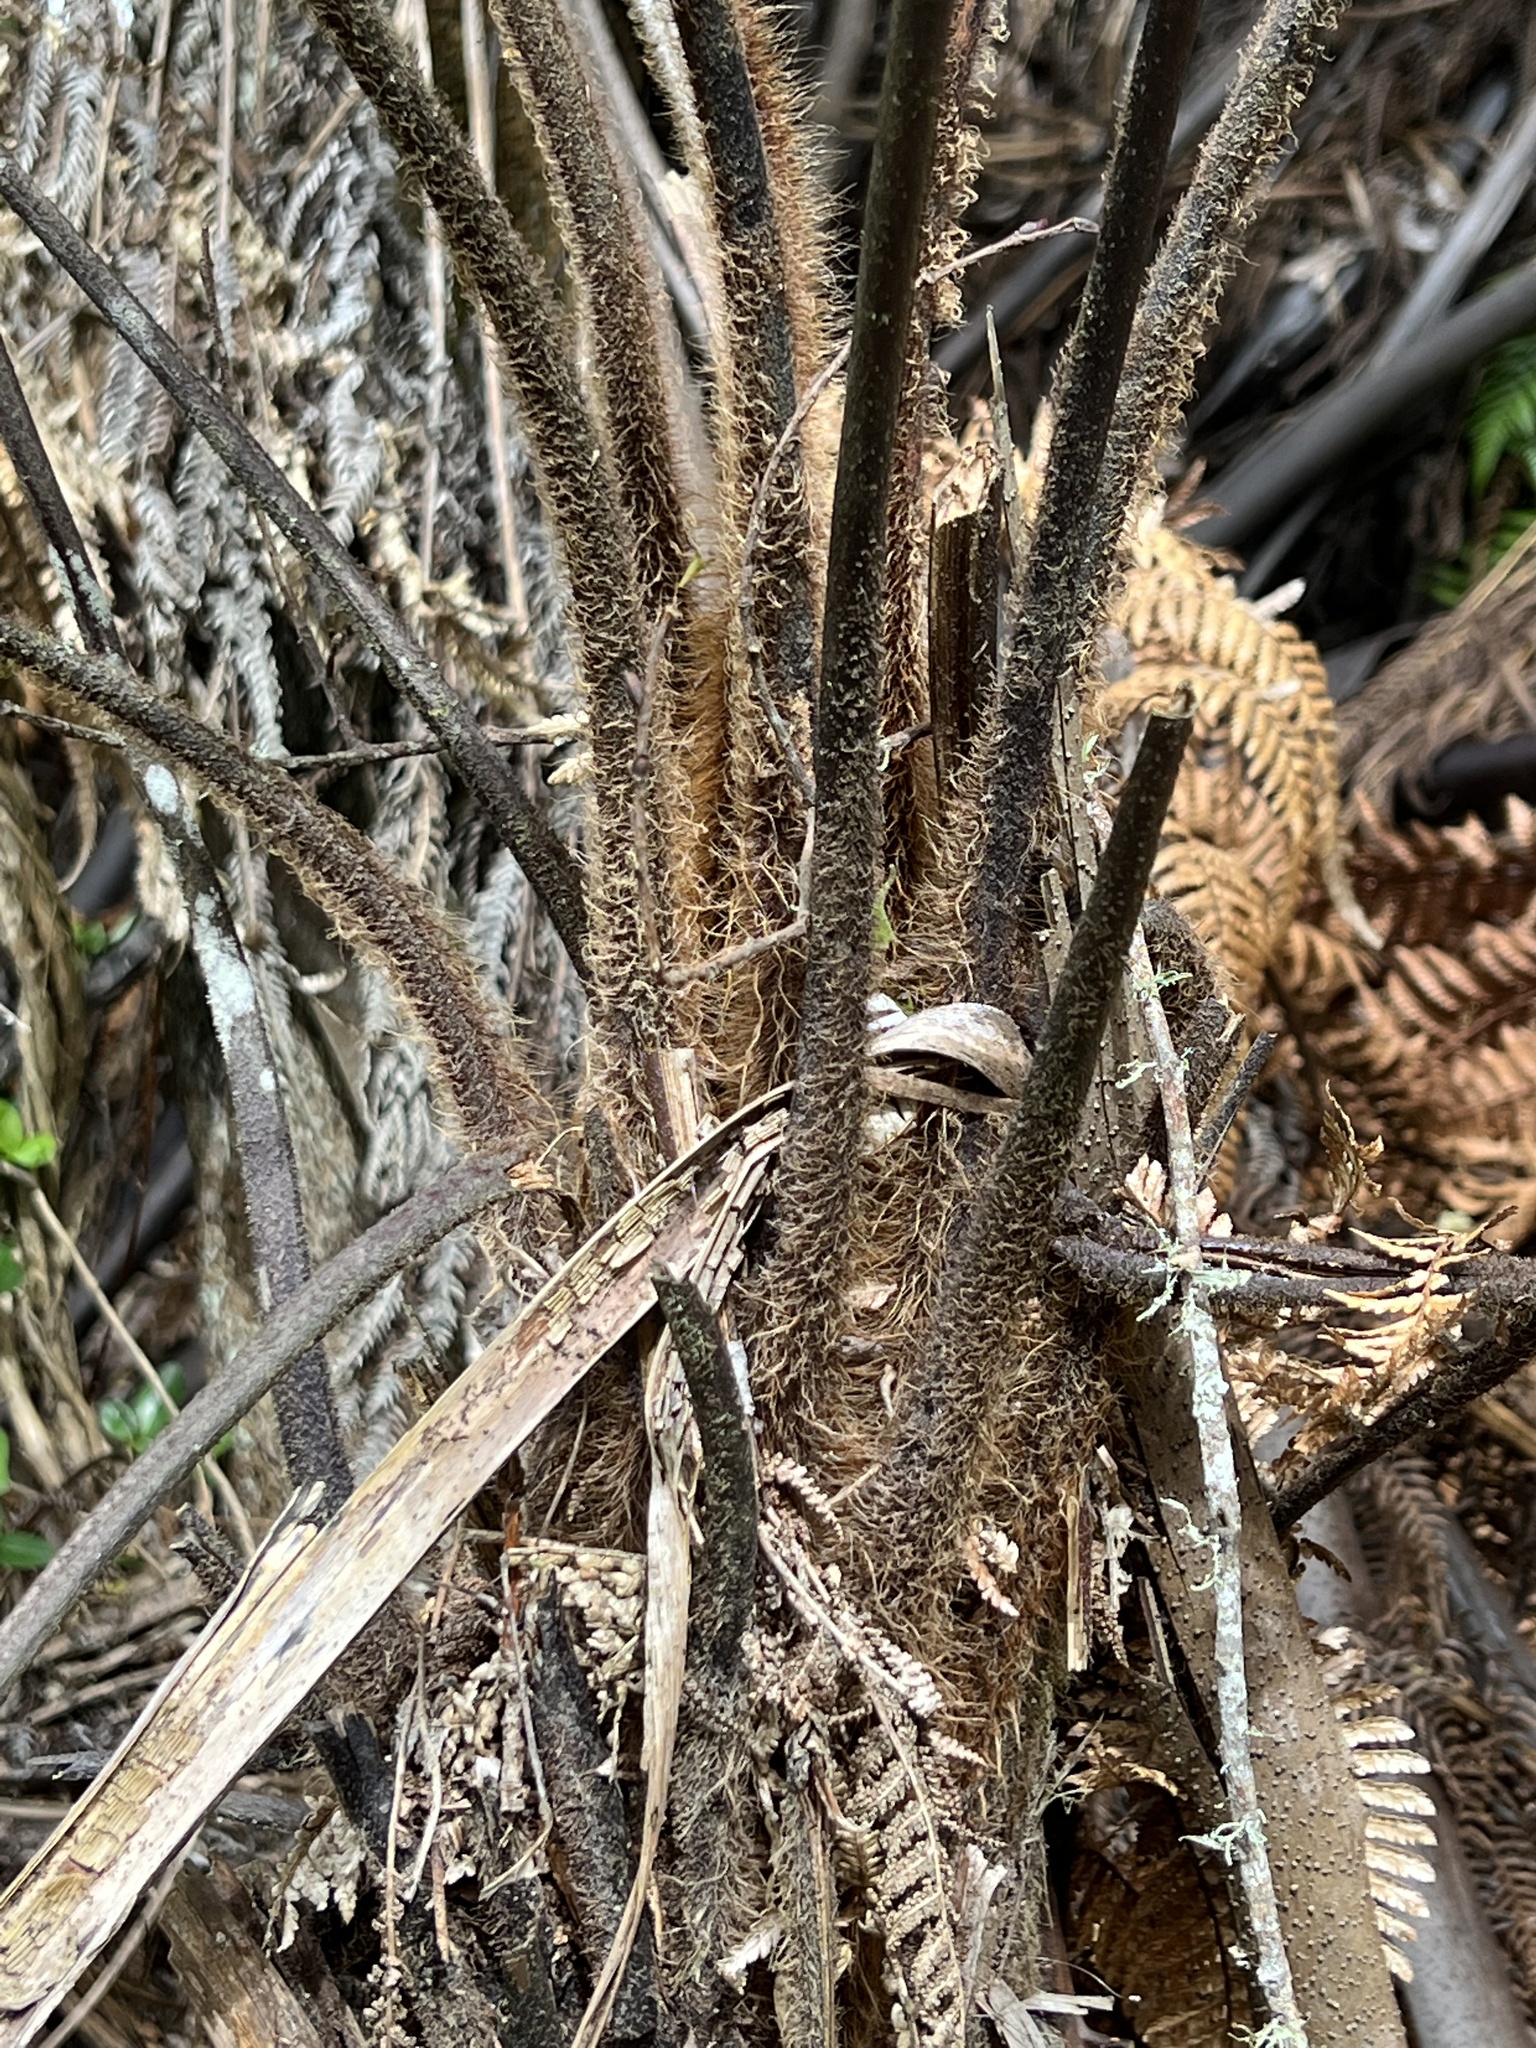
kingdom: Plantae
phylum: Tracheophyta
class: Polypodiopsida
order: Cyatheales
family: Dicksoniaceae
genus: Dicksonia
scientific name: Dicksonia squarrosa
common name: Hard treefern
